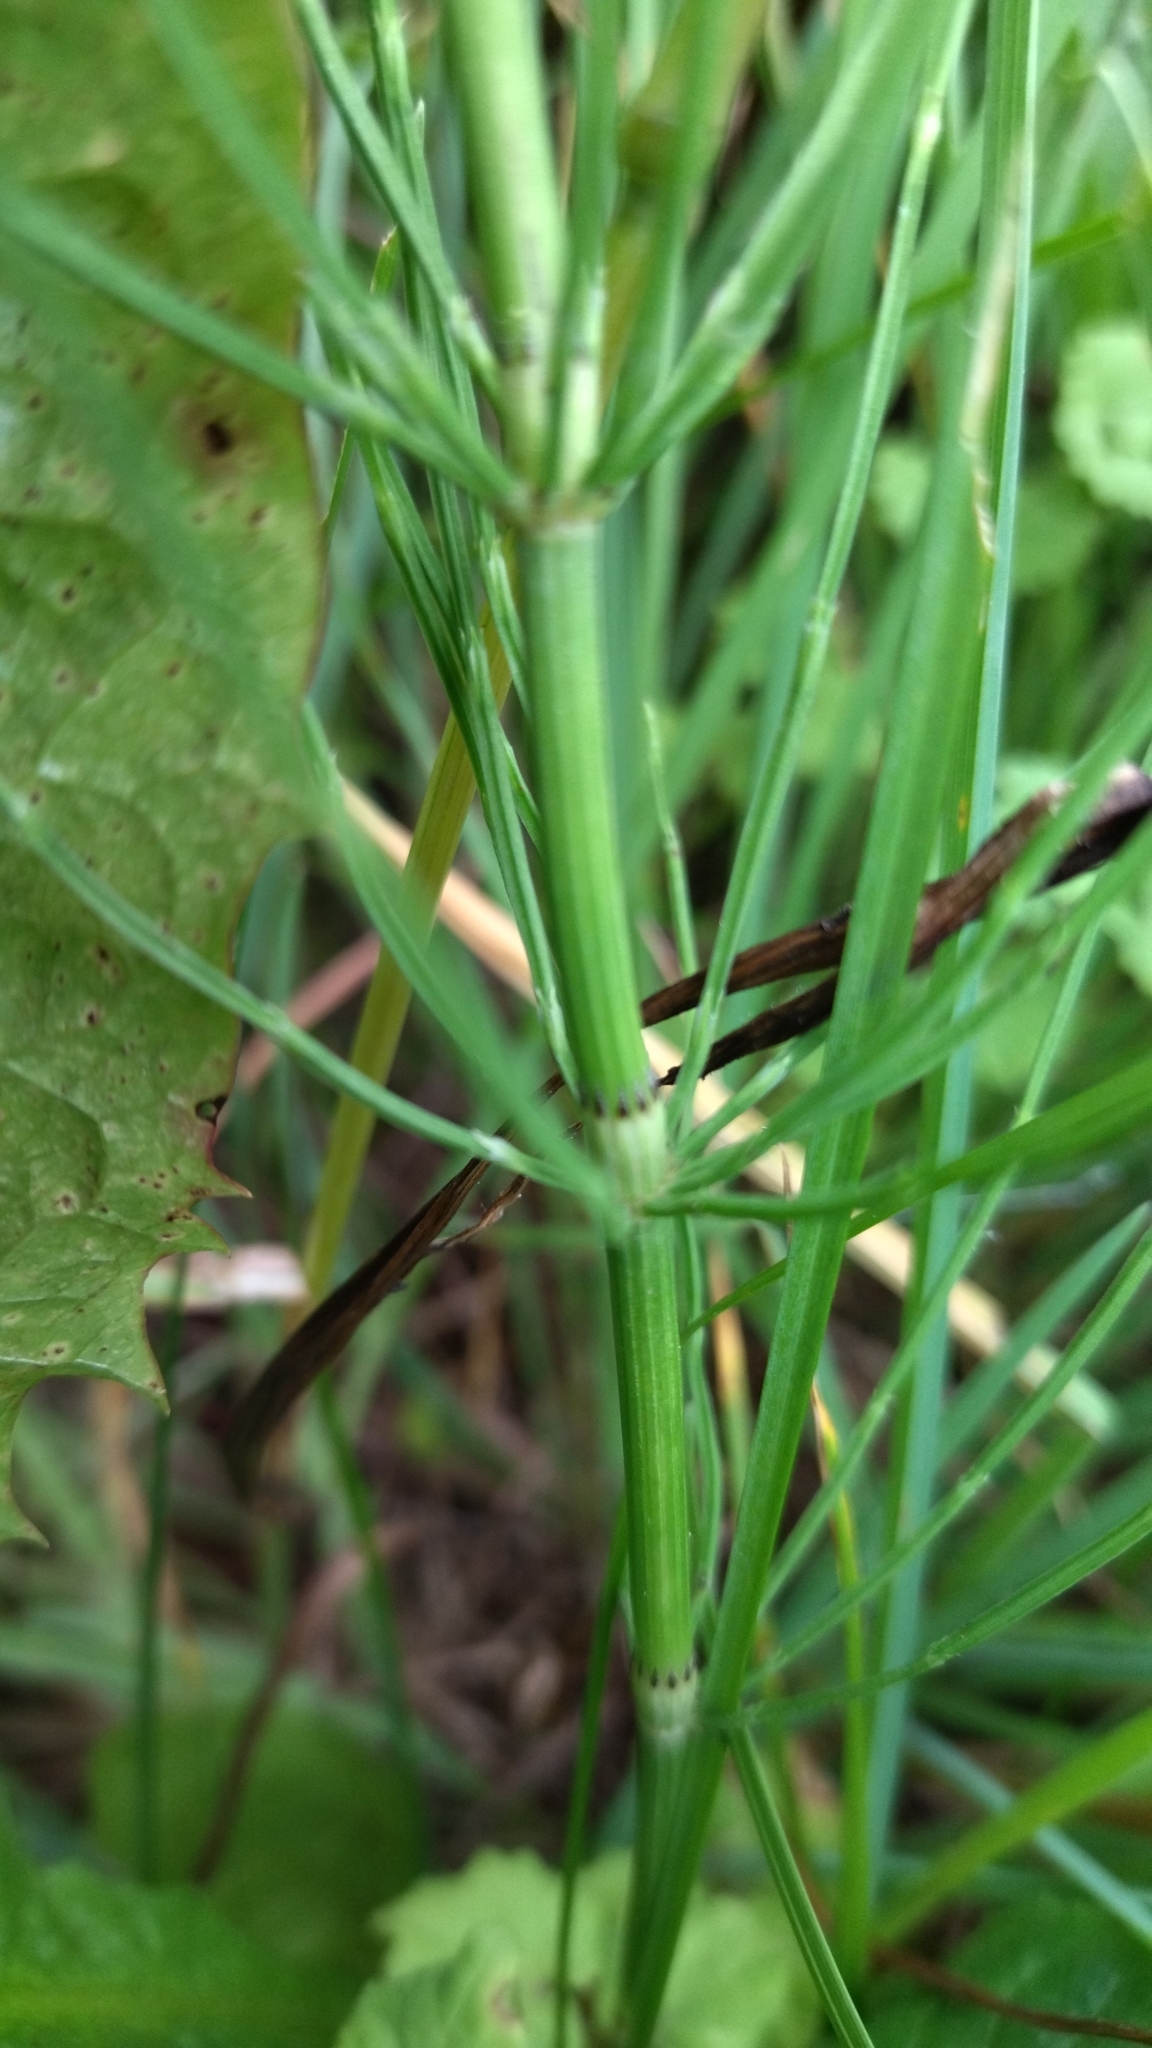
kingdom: Plantae
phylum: Tracheophyta
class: Polypodiopsida
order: Equisetales
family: Equisetaceae
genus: Equisetum
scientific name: Equisetum arvense
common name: Field horsetail
